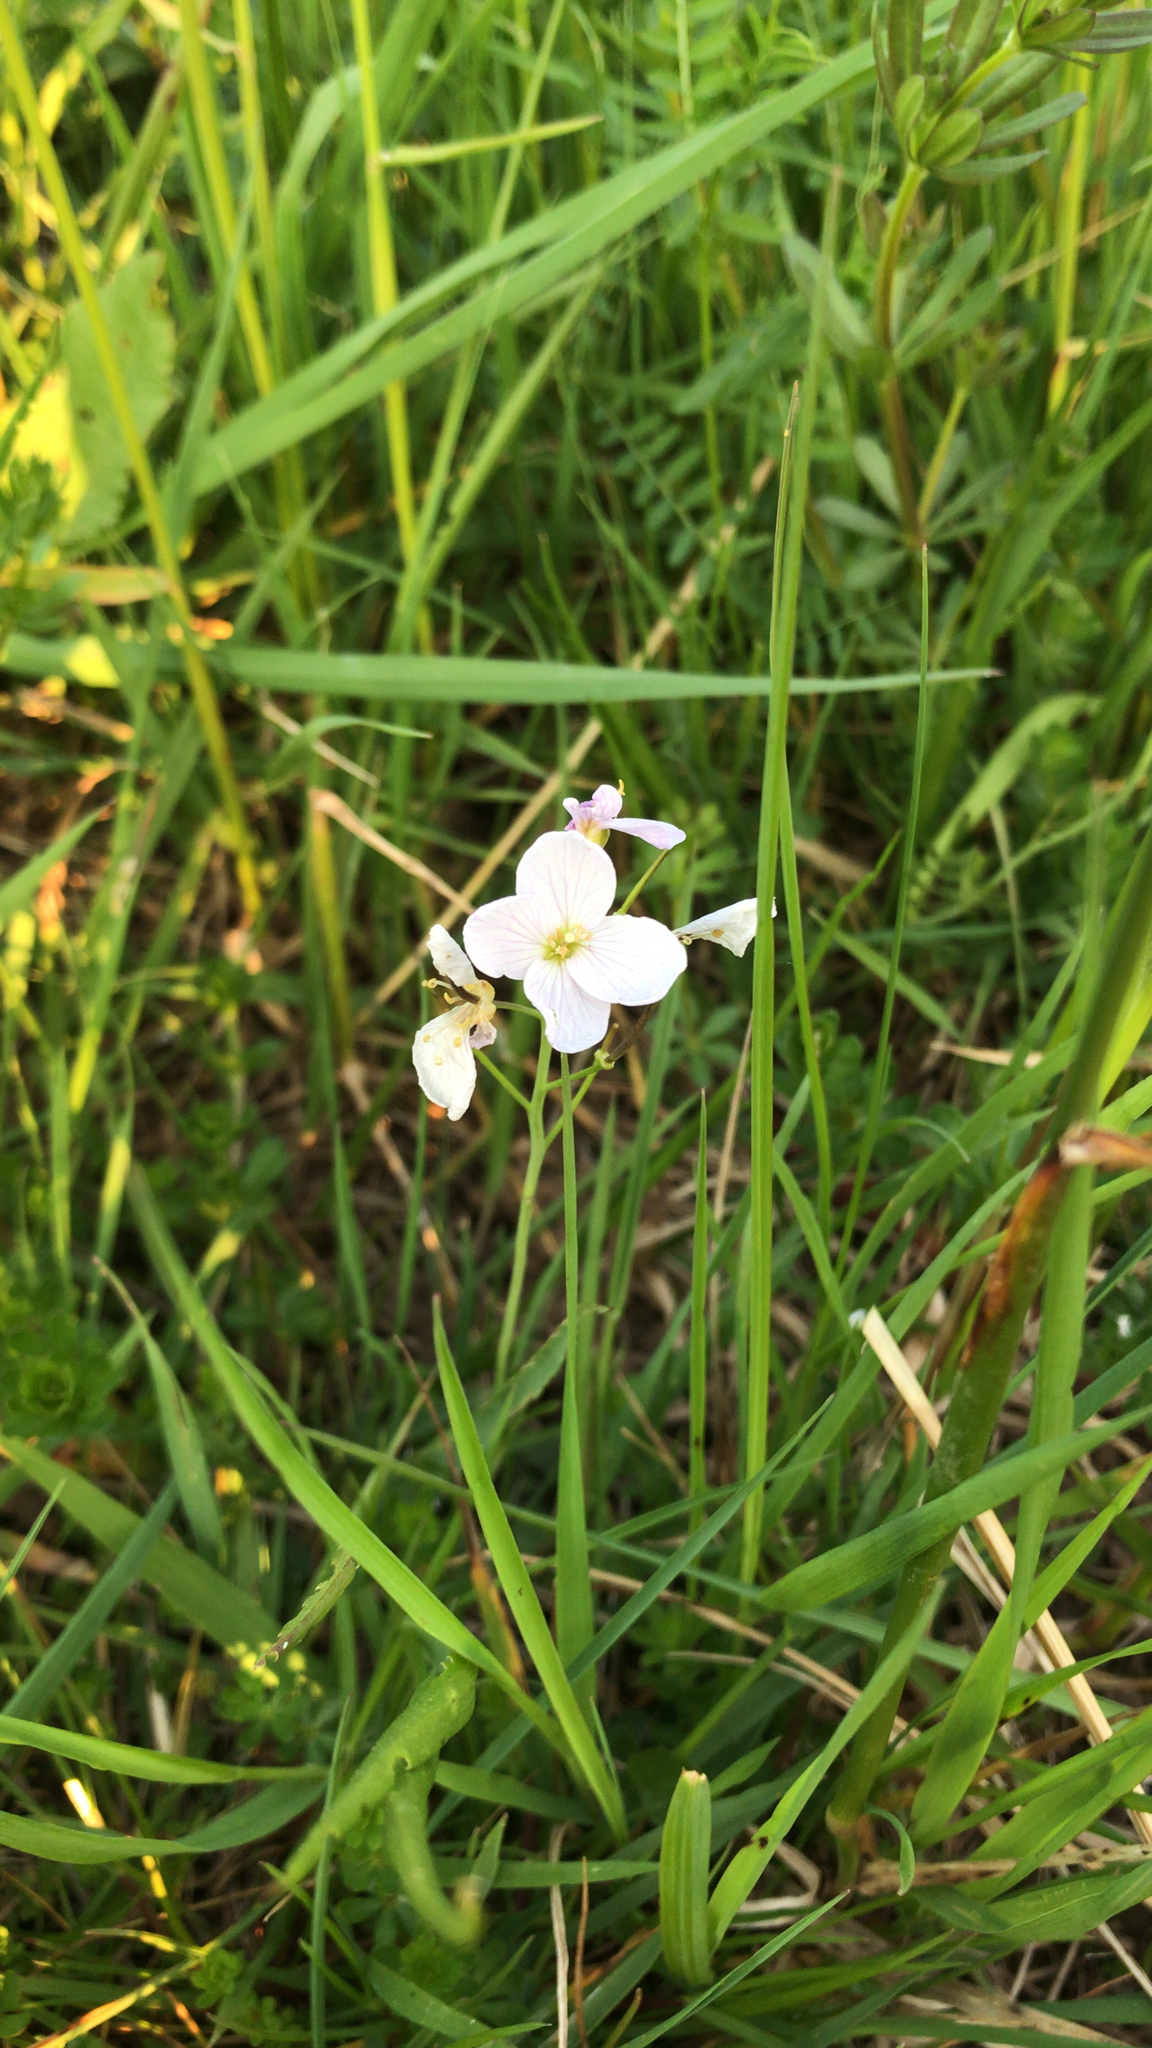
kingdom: Plantae
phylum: Tracheophyta
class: Magnoliopsida
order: Brassicales
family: Brassicaceae
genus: Cardamine
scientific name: Cardamine pratensis
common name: Cuckoo flower
